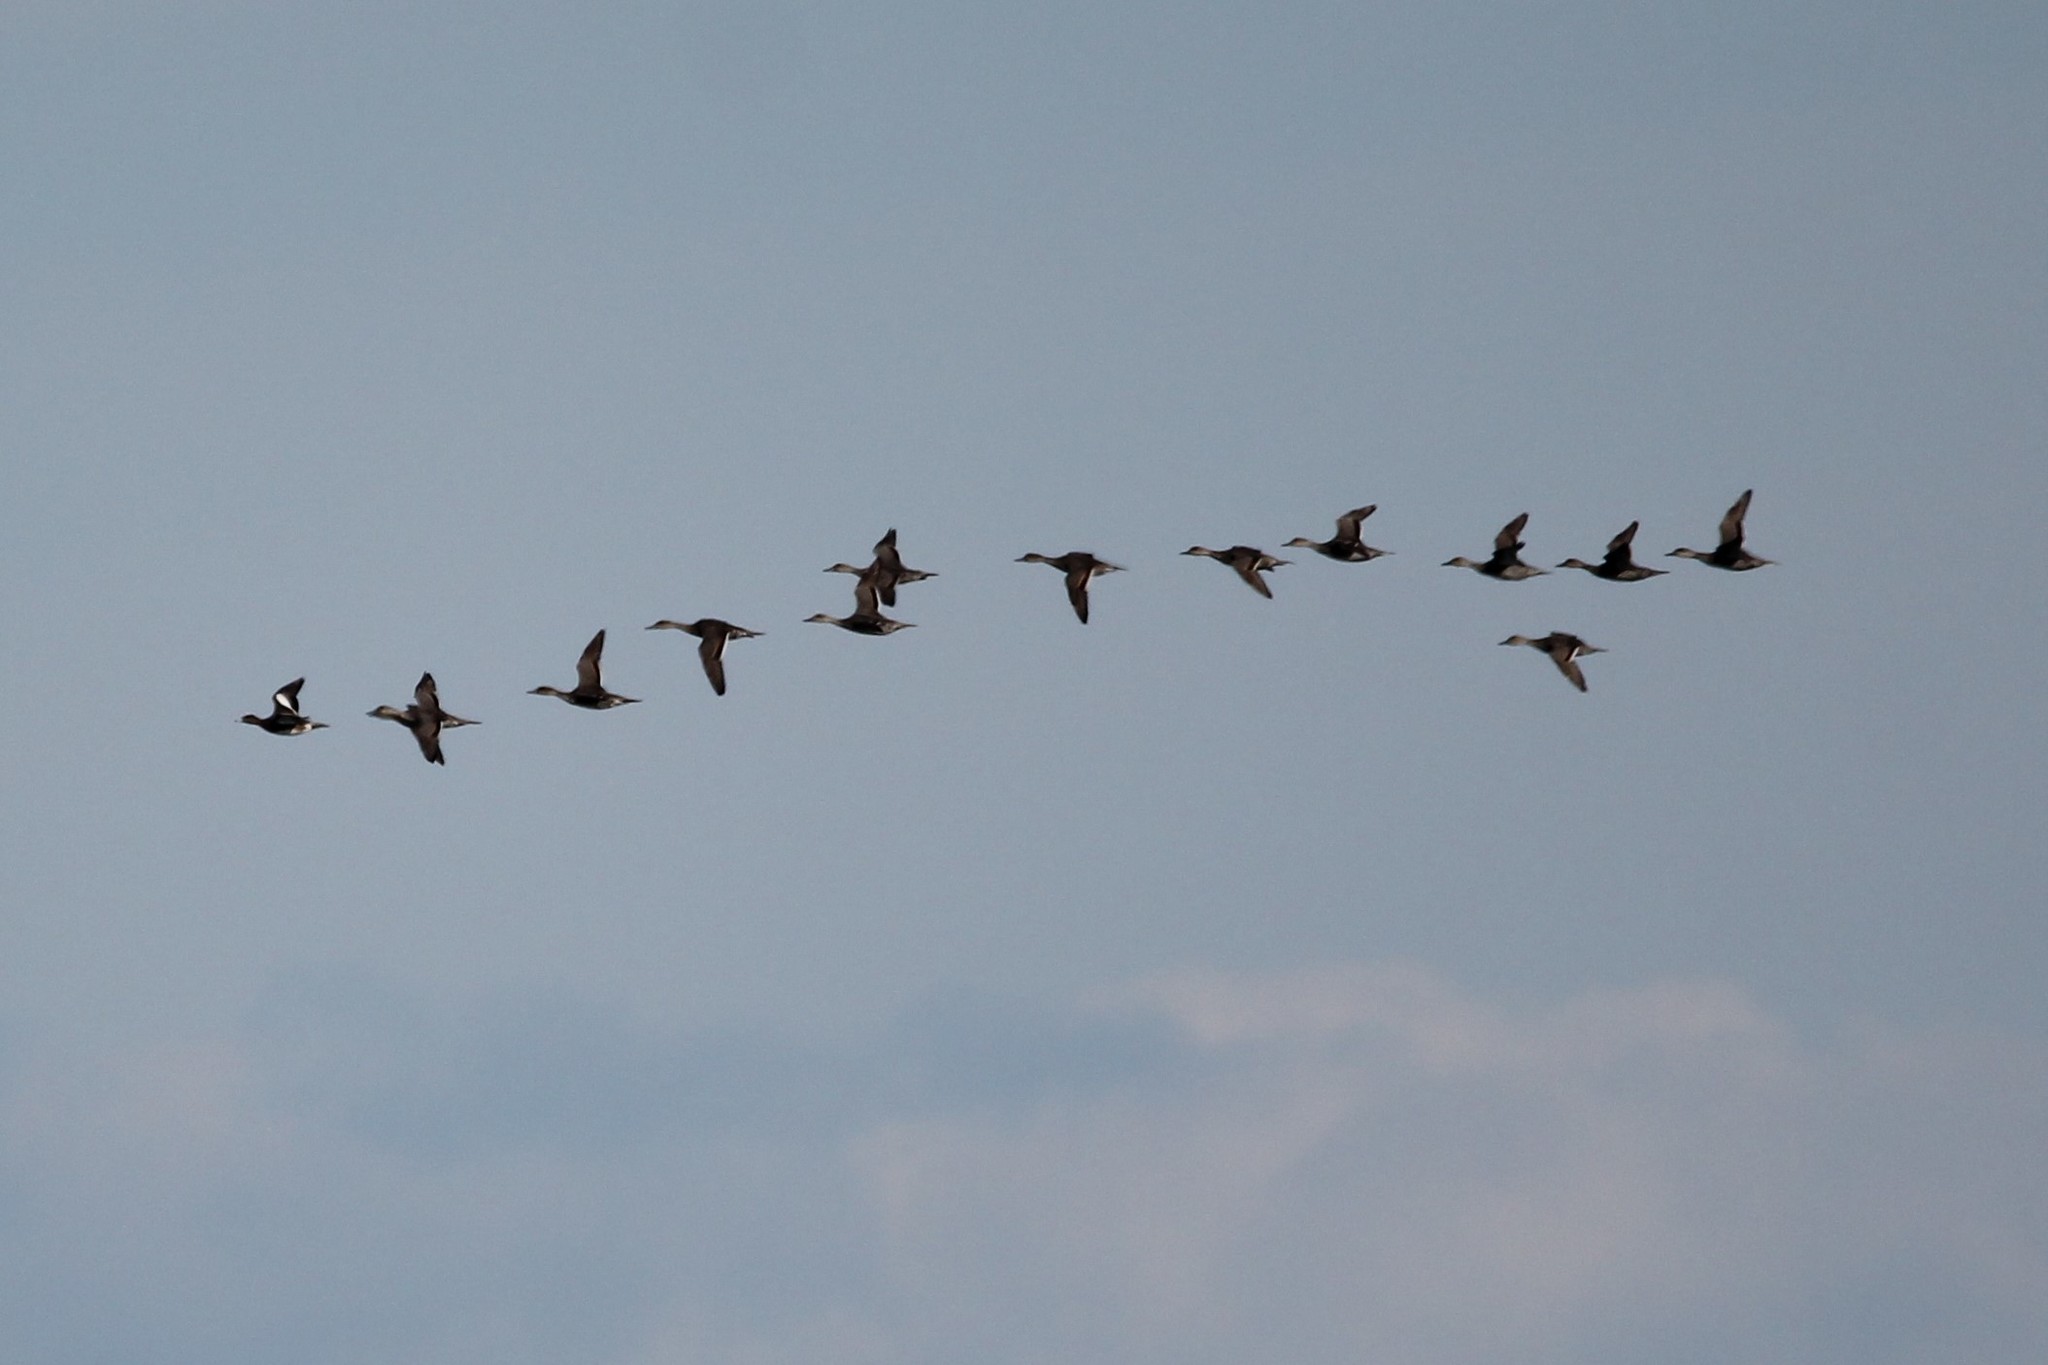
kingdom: Animalia
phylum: Chordata
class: Aves
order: Anseriformes
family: Anatidae
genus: Anas
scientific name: Anas acuta
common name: Northern pintail
